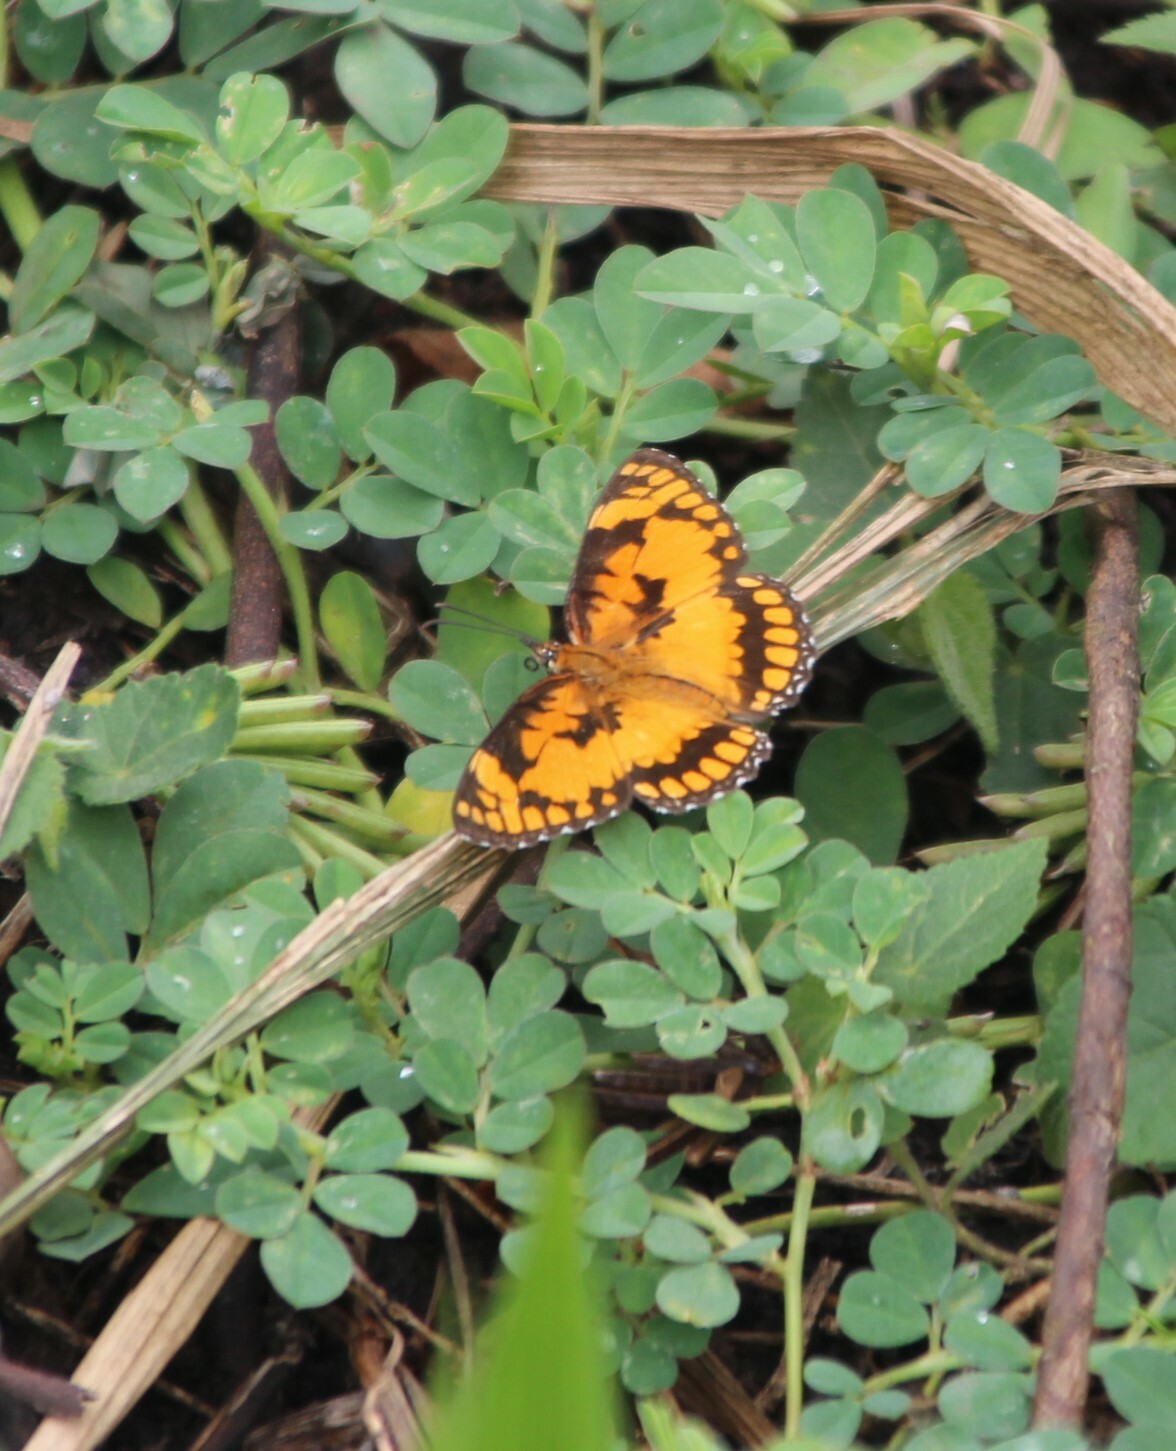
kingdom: Animalia
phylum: Arthropoda
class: Insecta
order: Lepidoptera
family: Nymphalidae
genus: Byblia
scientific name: Byblia anvatara
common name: African joker
